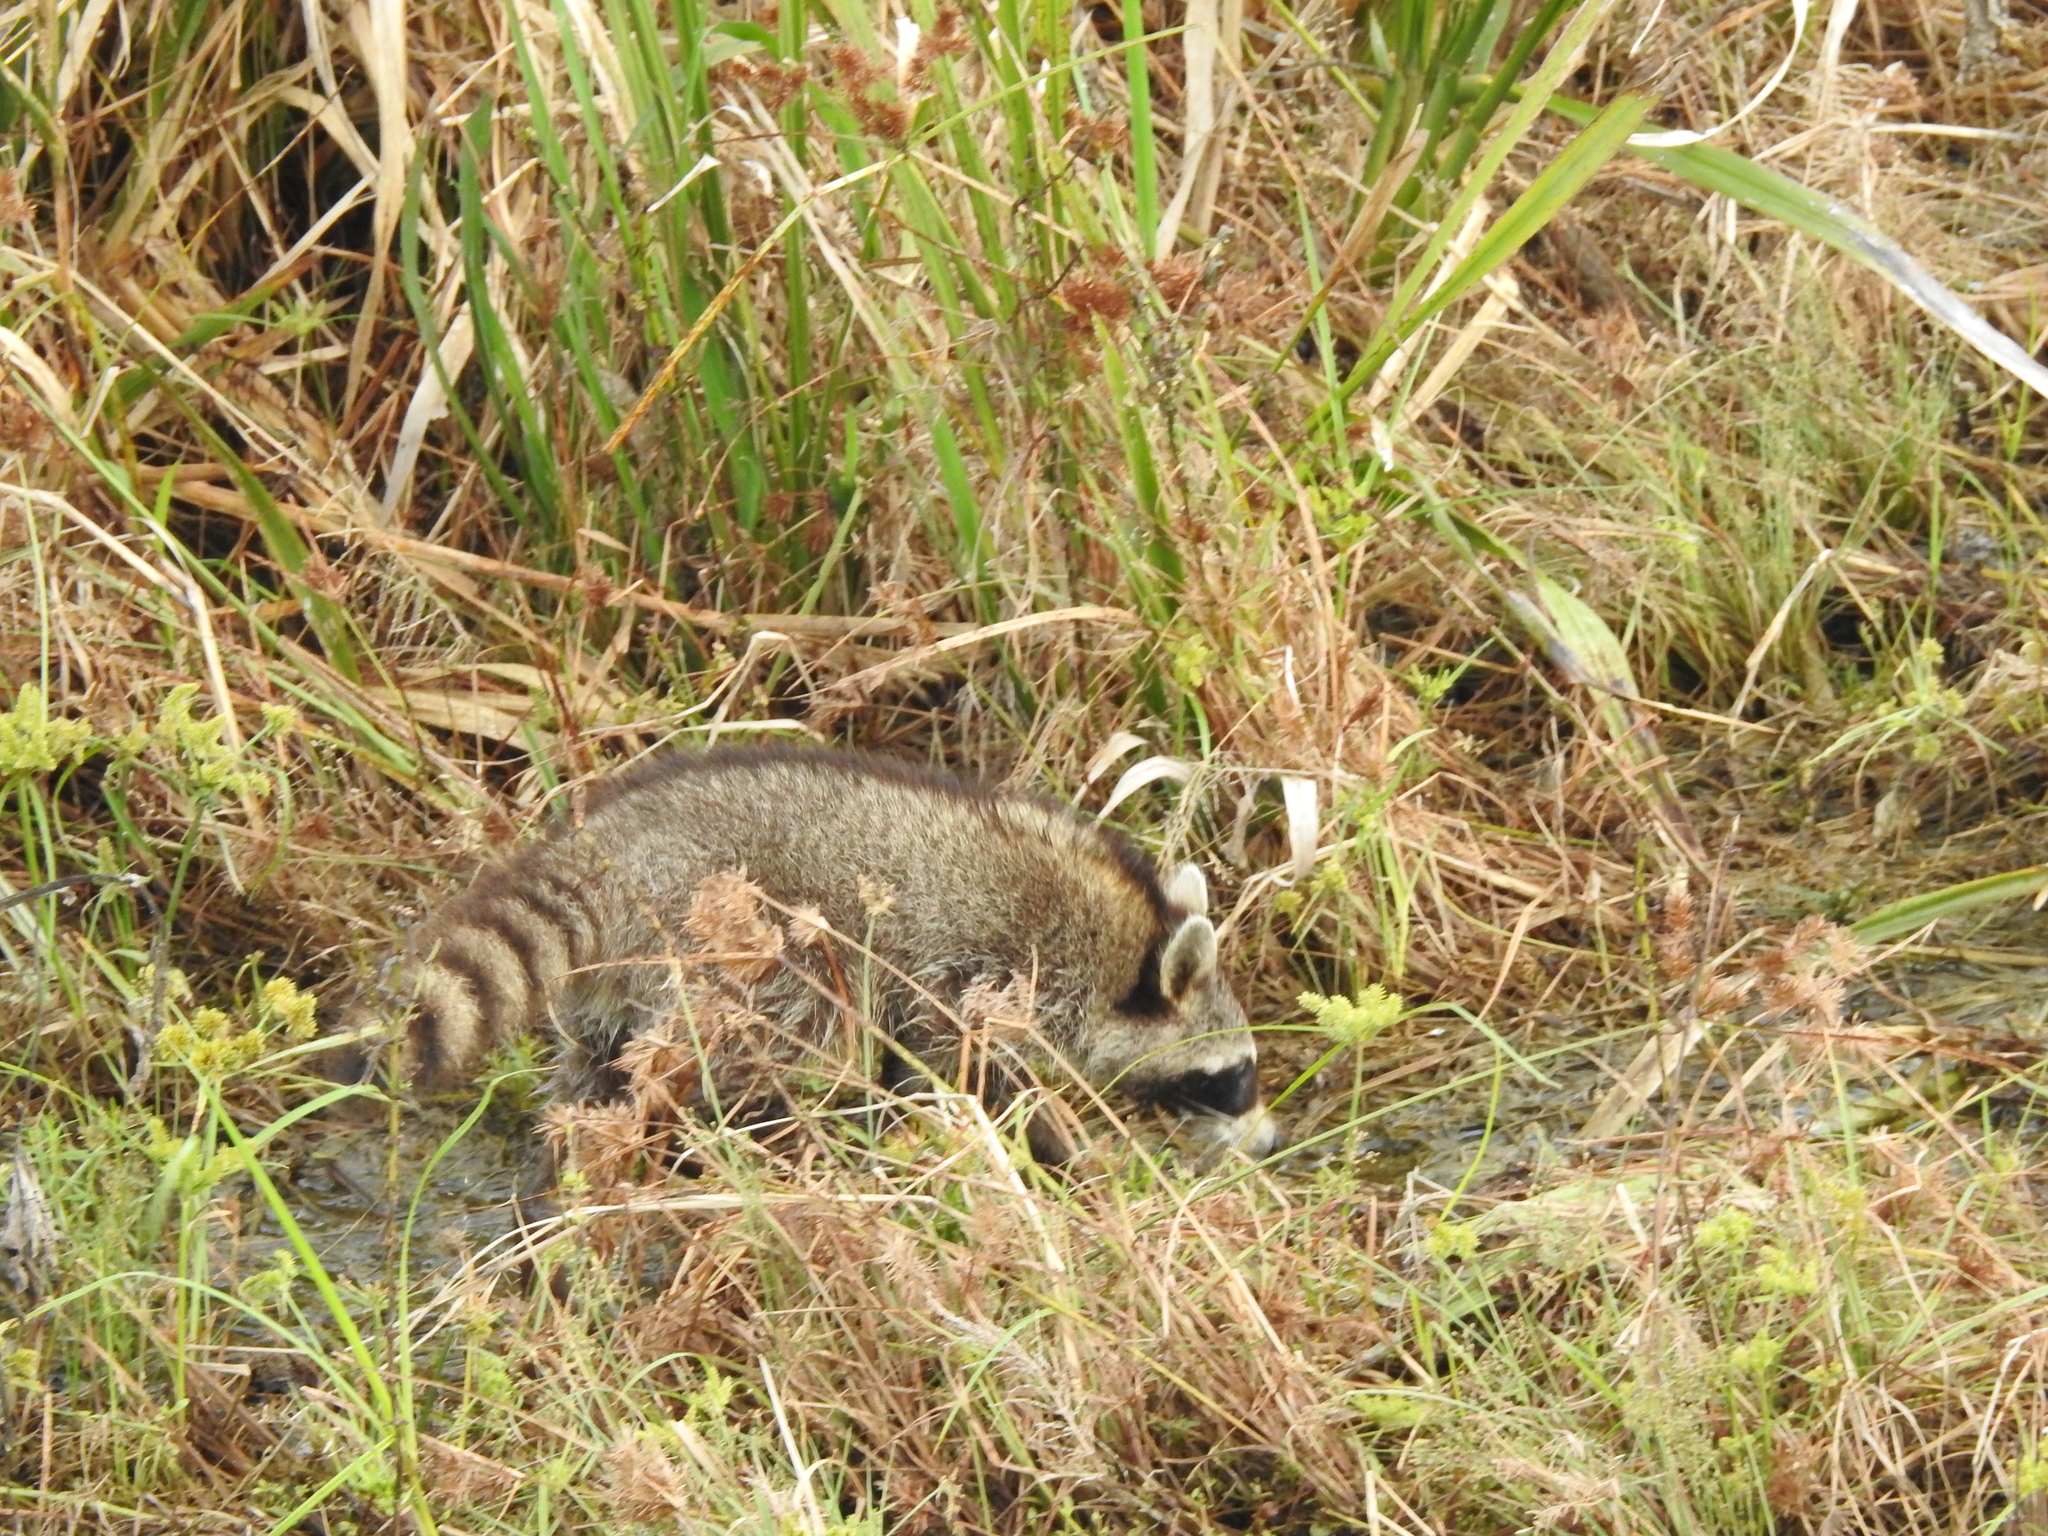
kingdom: Animalia
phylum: Chordata
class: Mammalia
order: Carnivora
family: Procyonidae
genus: Procyon
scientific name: Procyon lotor
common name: Raccoon
